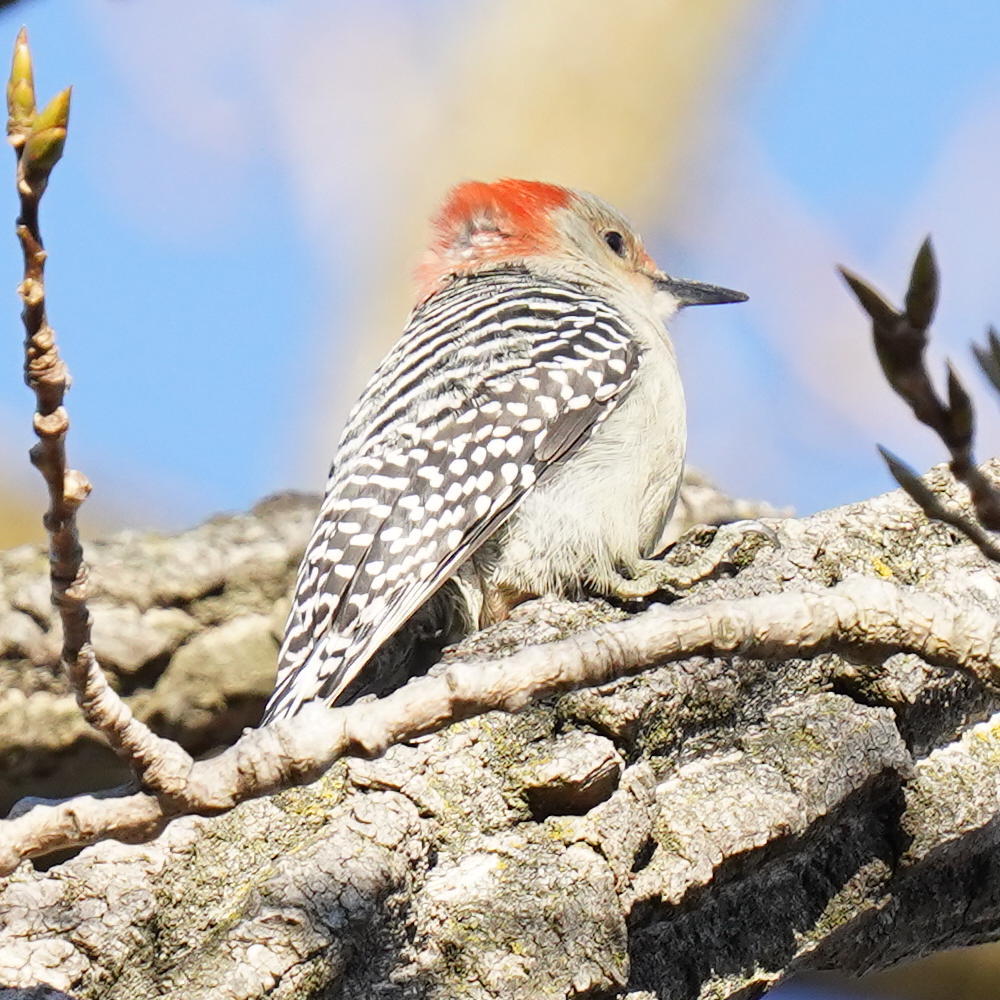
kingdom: Animalia
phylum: Chordata
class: Aves
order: Piciformes
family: Picidae
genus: Melanerpes
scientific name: Melanerpes carolinus
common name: Red-bellied woodpecker
